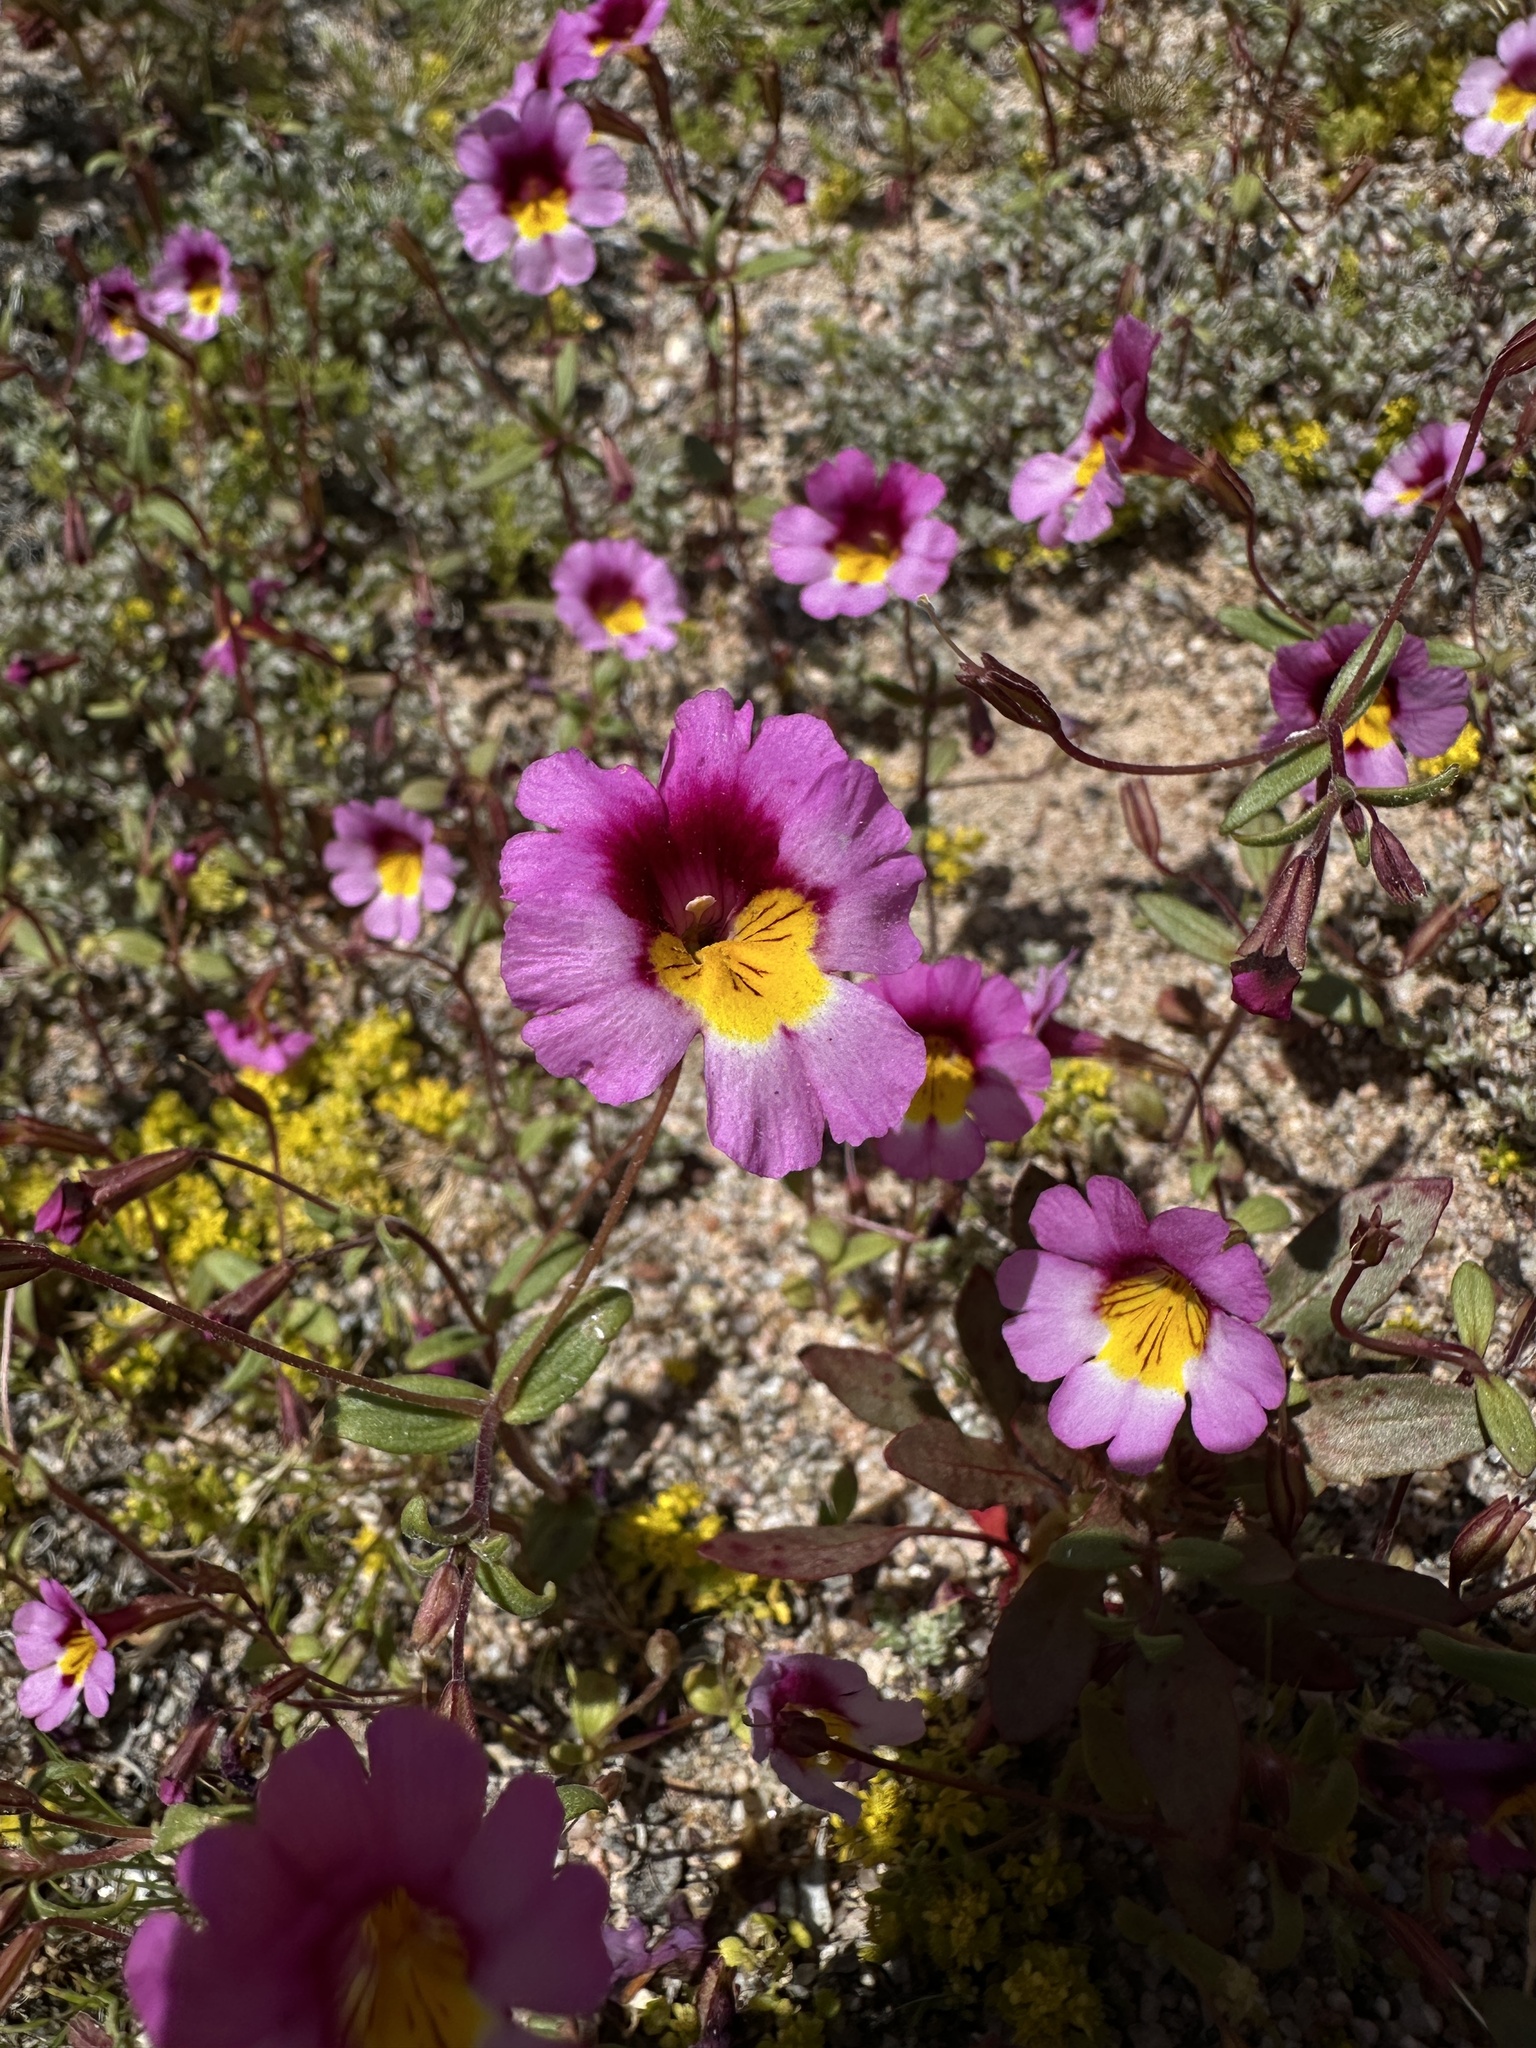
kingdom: Plantae
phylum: Tracheophyta
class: Magnoliopsida
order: Lamiales
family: Phrymaceae
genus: Erythranthe
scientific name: Erythranthe rhodopetra
